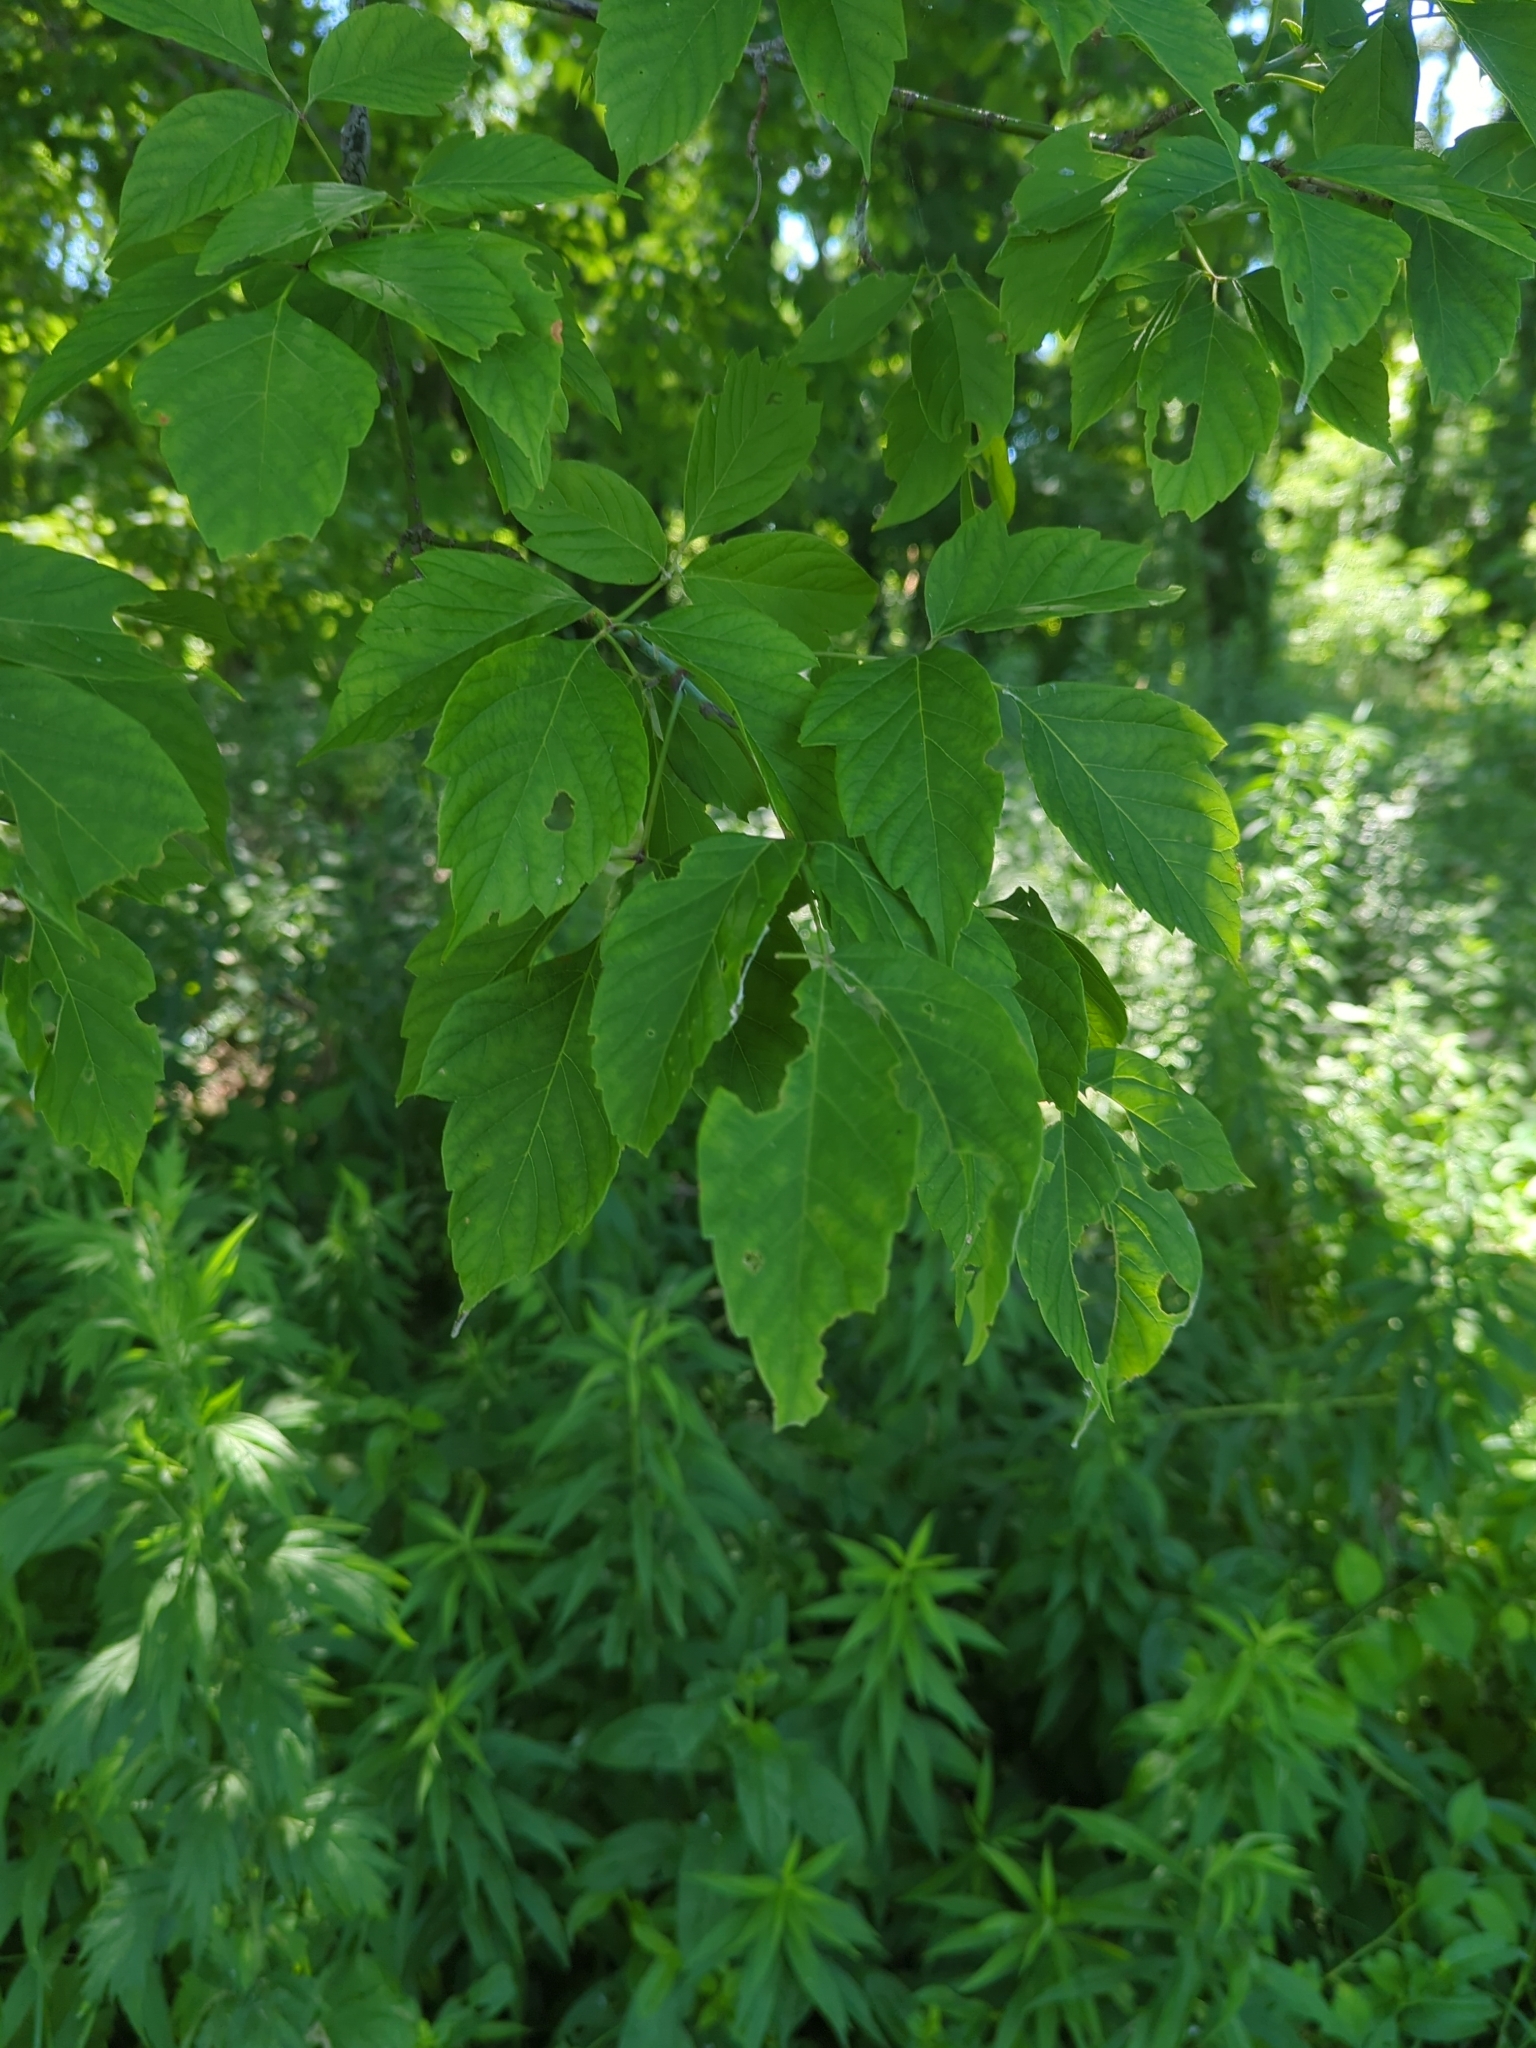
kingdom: Plantae
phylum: Tracheophyta
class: Magnoliopsida
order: Sapindales
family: Sapindaceae
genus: Acer
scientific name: Acer negundo
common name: Ashleaf maple
